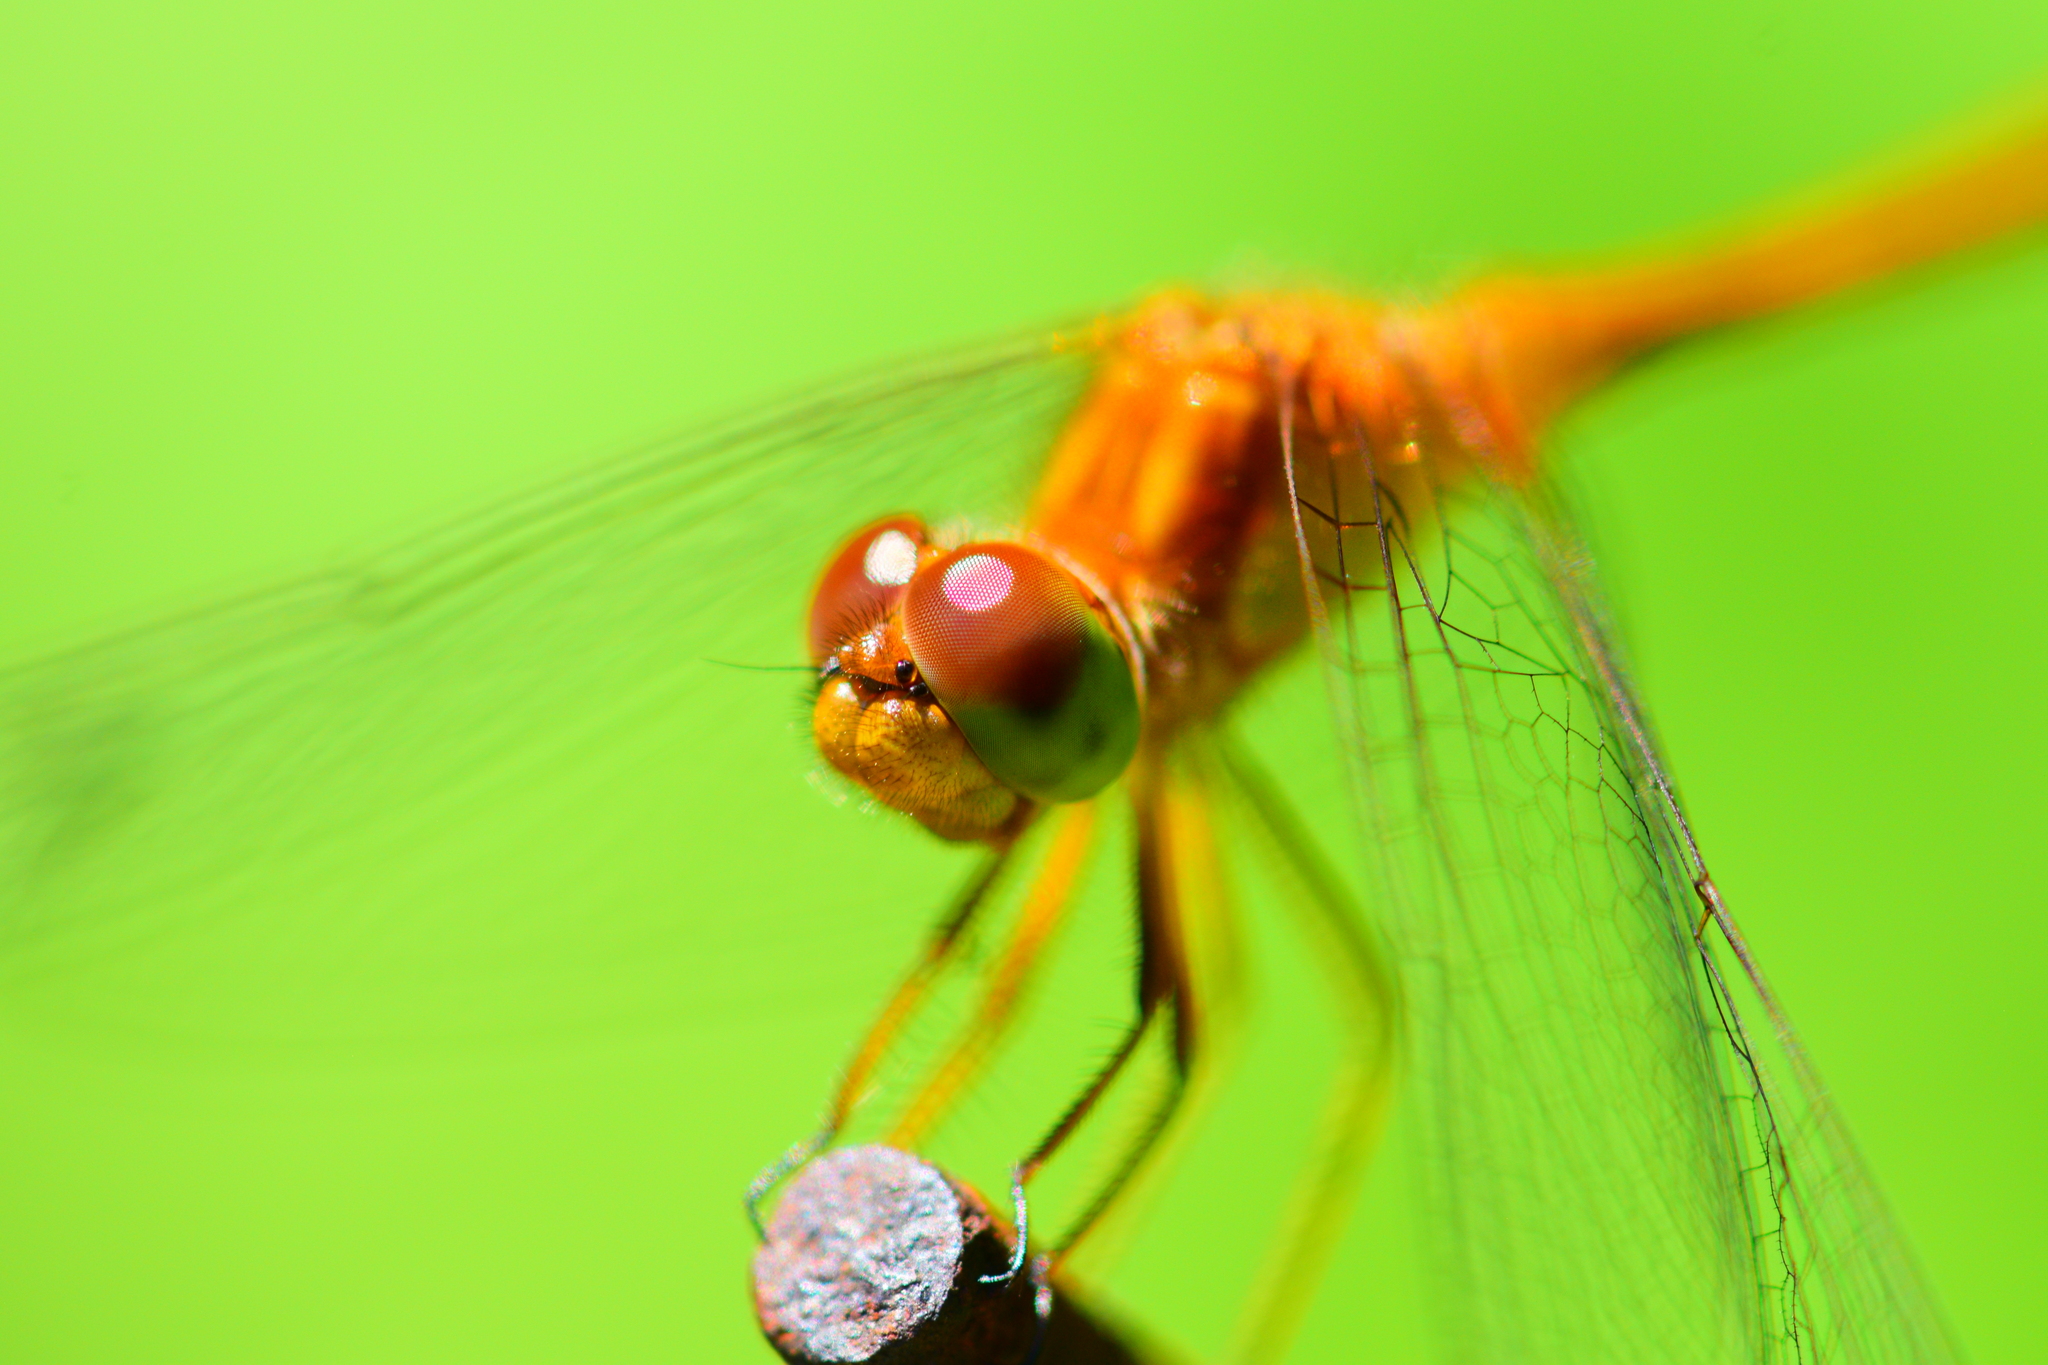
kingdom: Animalia
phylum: Arthropoda
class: Insecta
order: Odonata
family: Libellulidae
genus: Sympetrum
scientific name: Sympetrum vicinum
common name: Autumn meadowhawk
